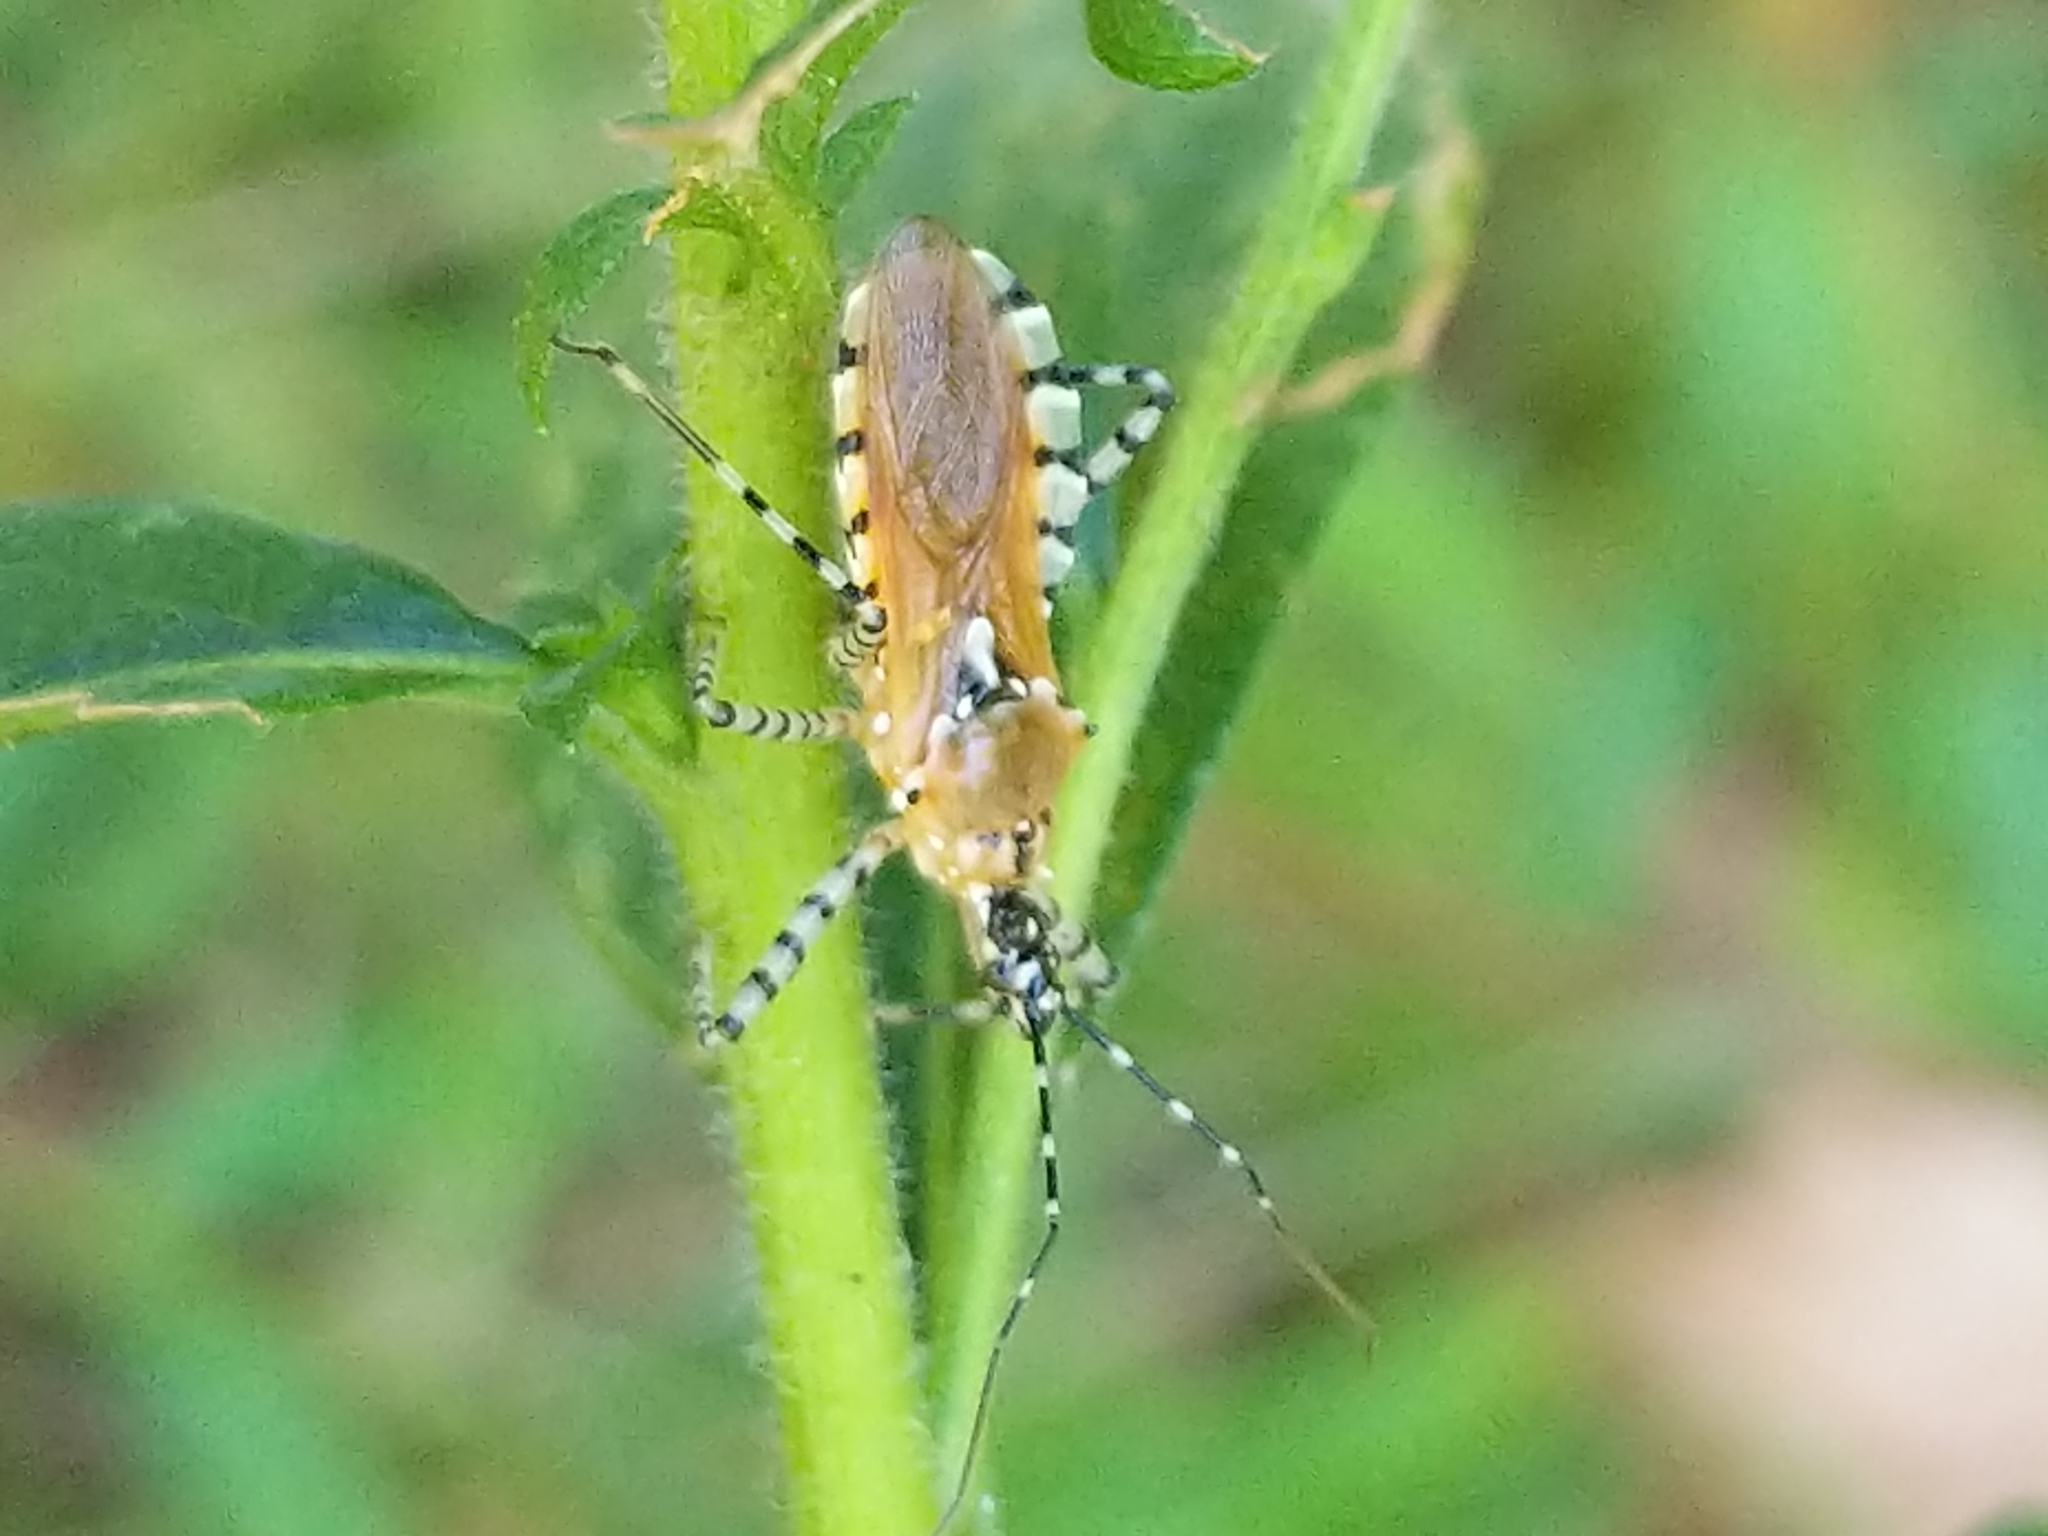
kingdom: Animalia
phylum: Arthropoda
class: Insecta
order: Hemiptera
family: Reduviidae
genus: Pselliopus
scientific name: Pselliopus cinctus
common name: Ringed assassin bug
